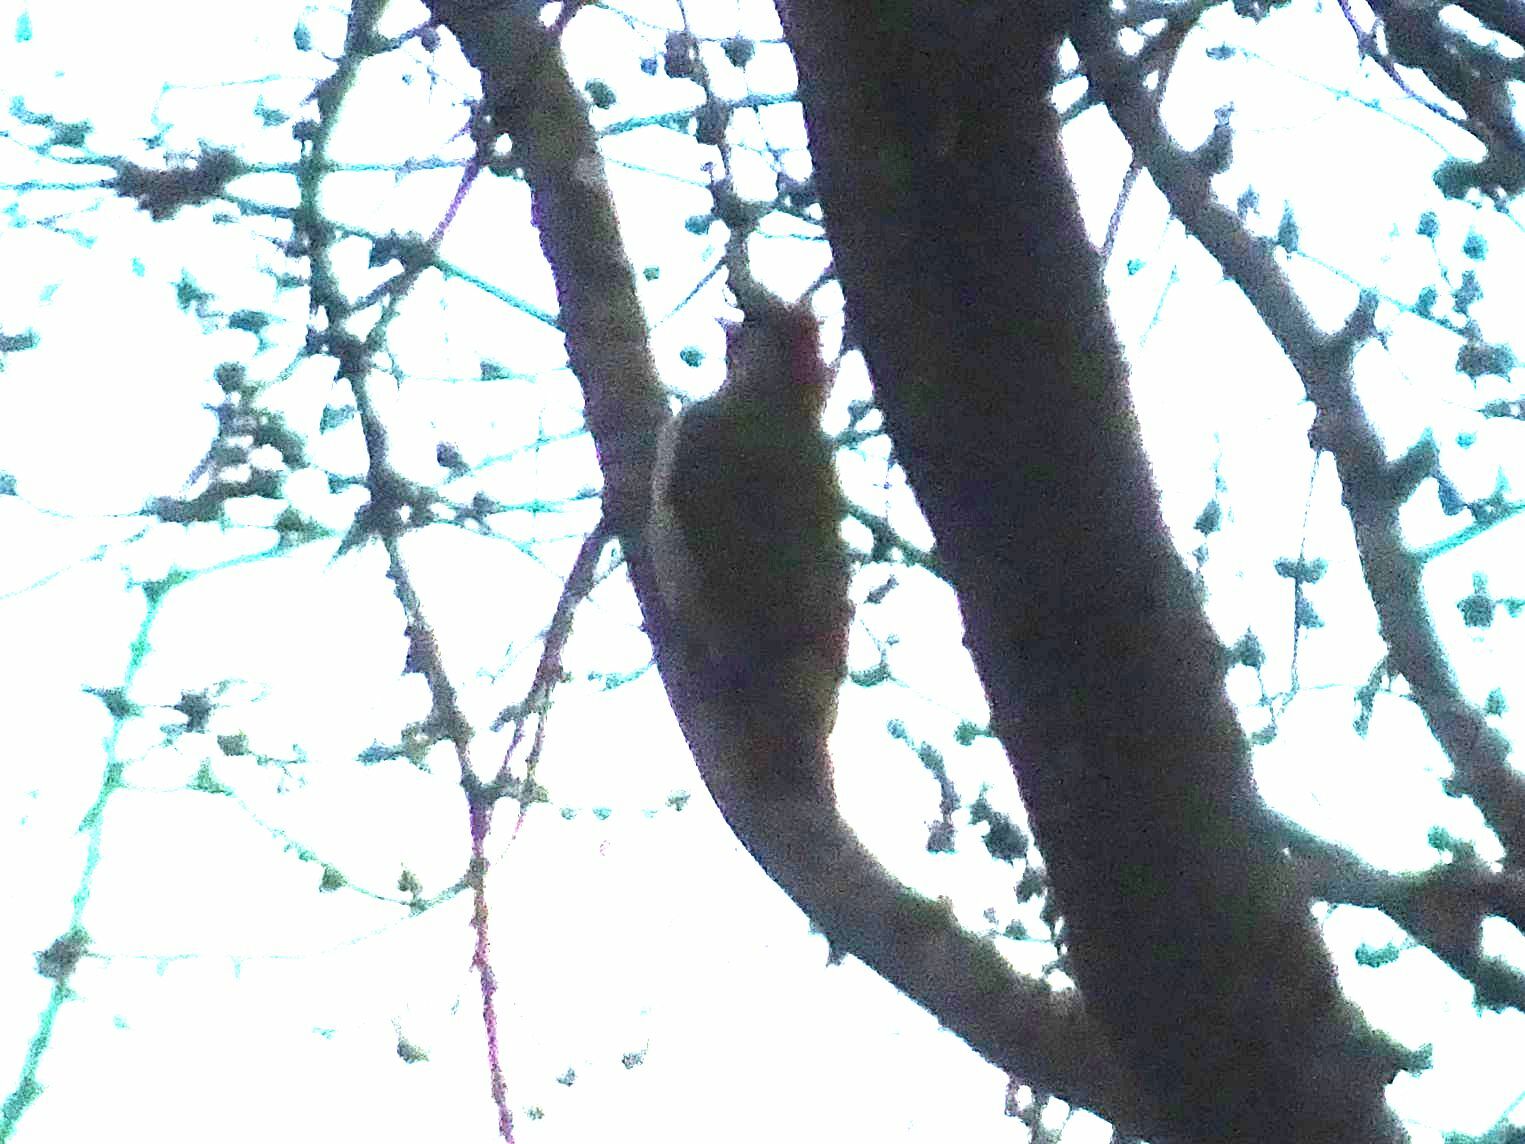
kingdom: Animalia
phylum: Chordata
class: Aves
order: Piciformes
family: Picidae
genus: Picus
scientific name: Picus viridis
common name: European green woodpecker
